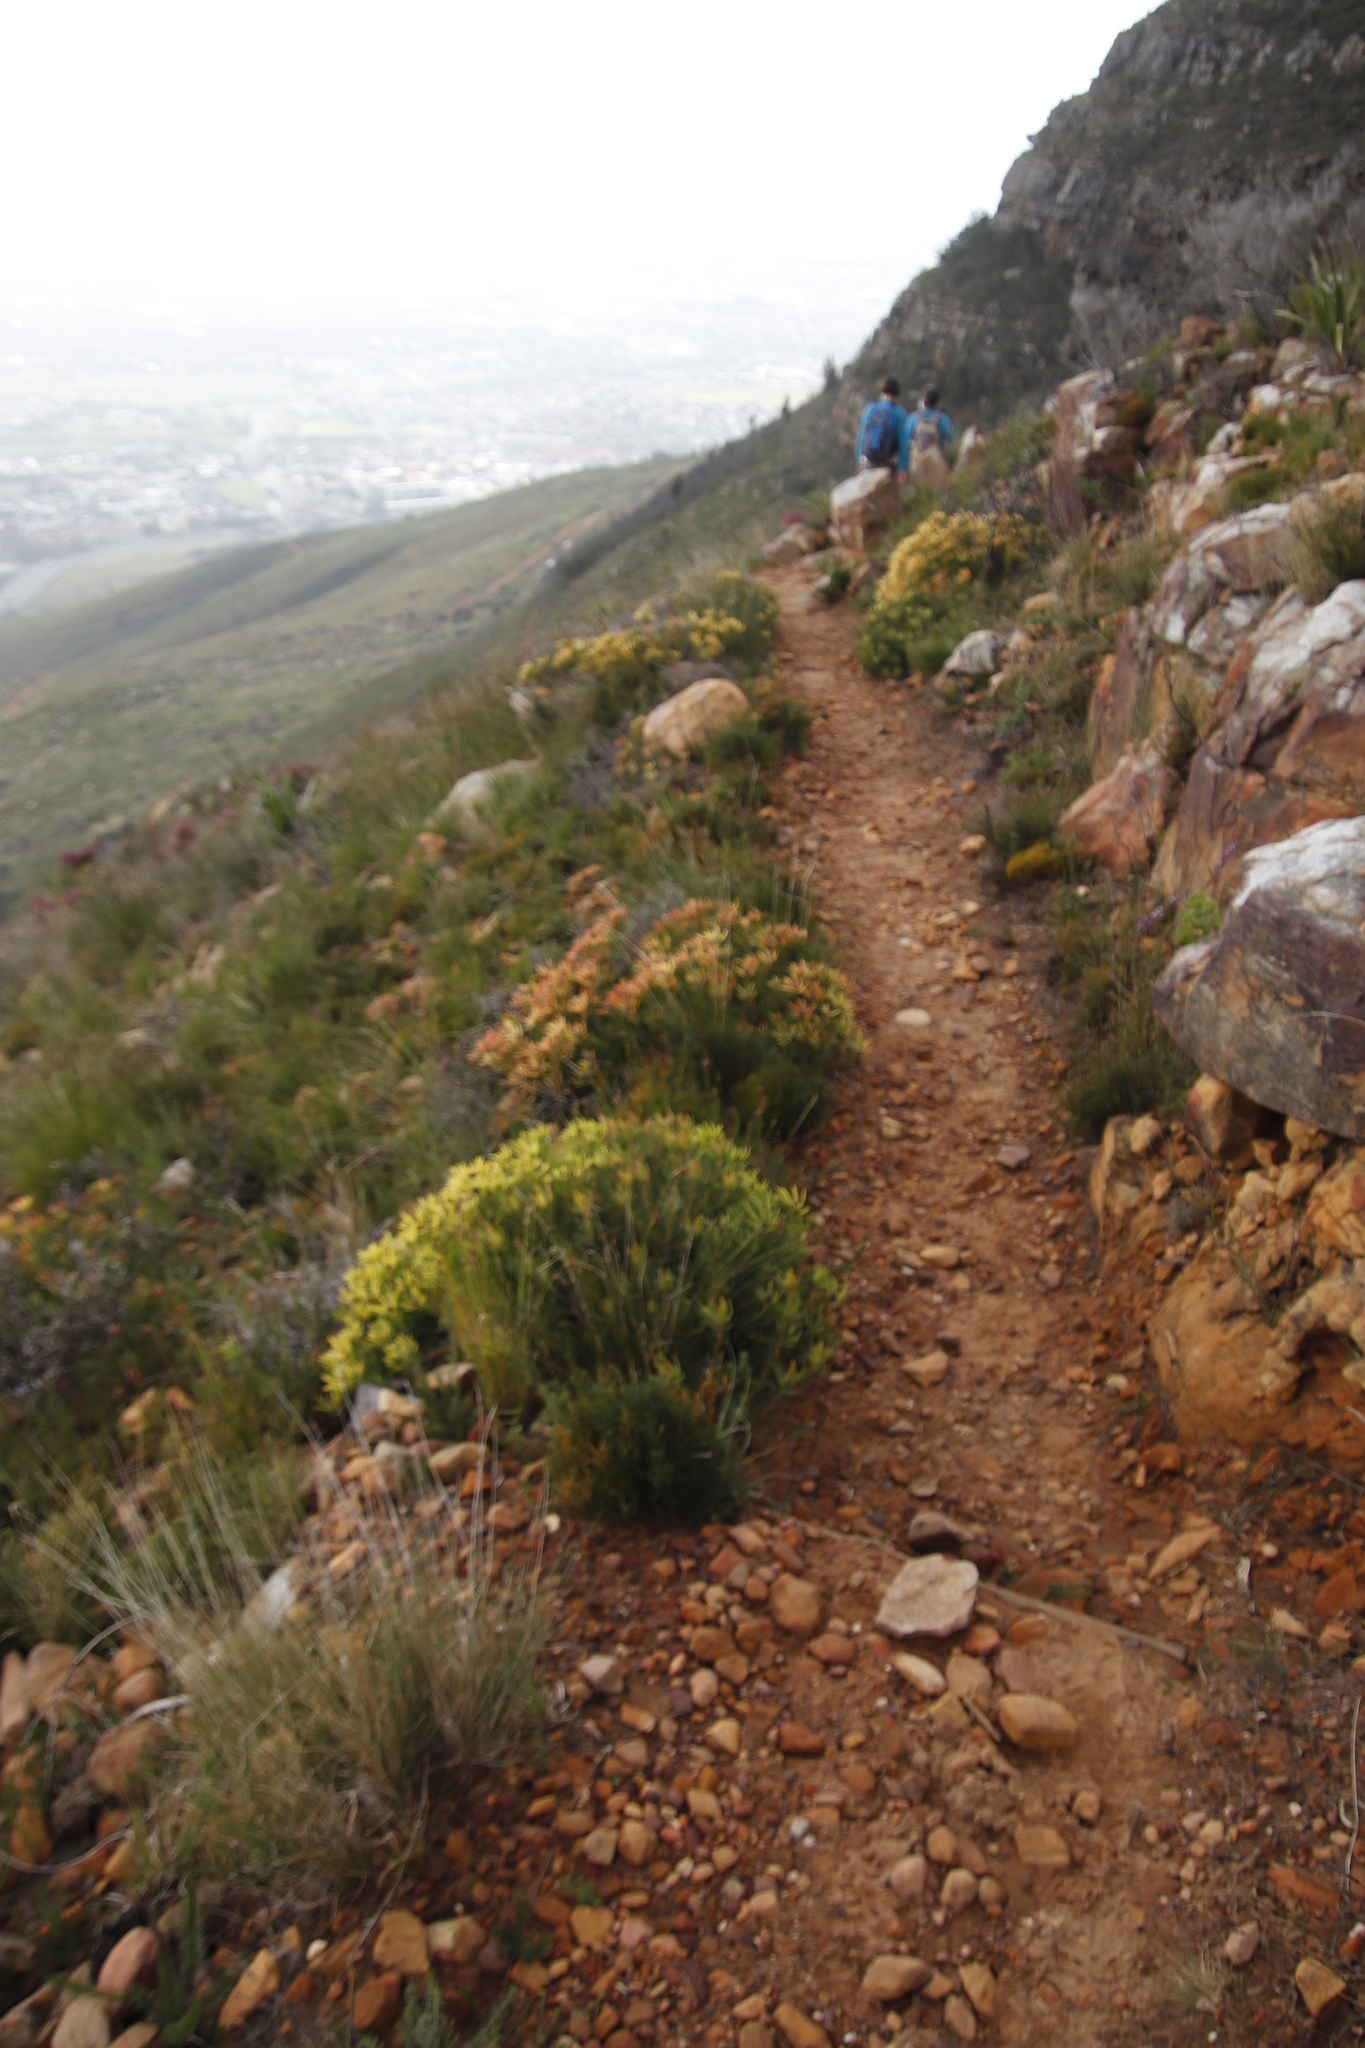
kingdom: Plantae
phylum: Tracheophyta
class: Magnoliopsida
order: Proteales
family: Proteaceae
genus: Leucadendron
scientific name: Leucadendron salignum
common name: Common sunshine conebush
